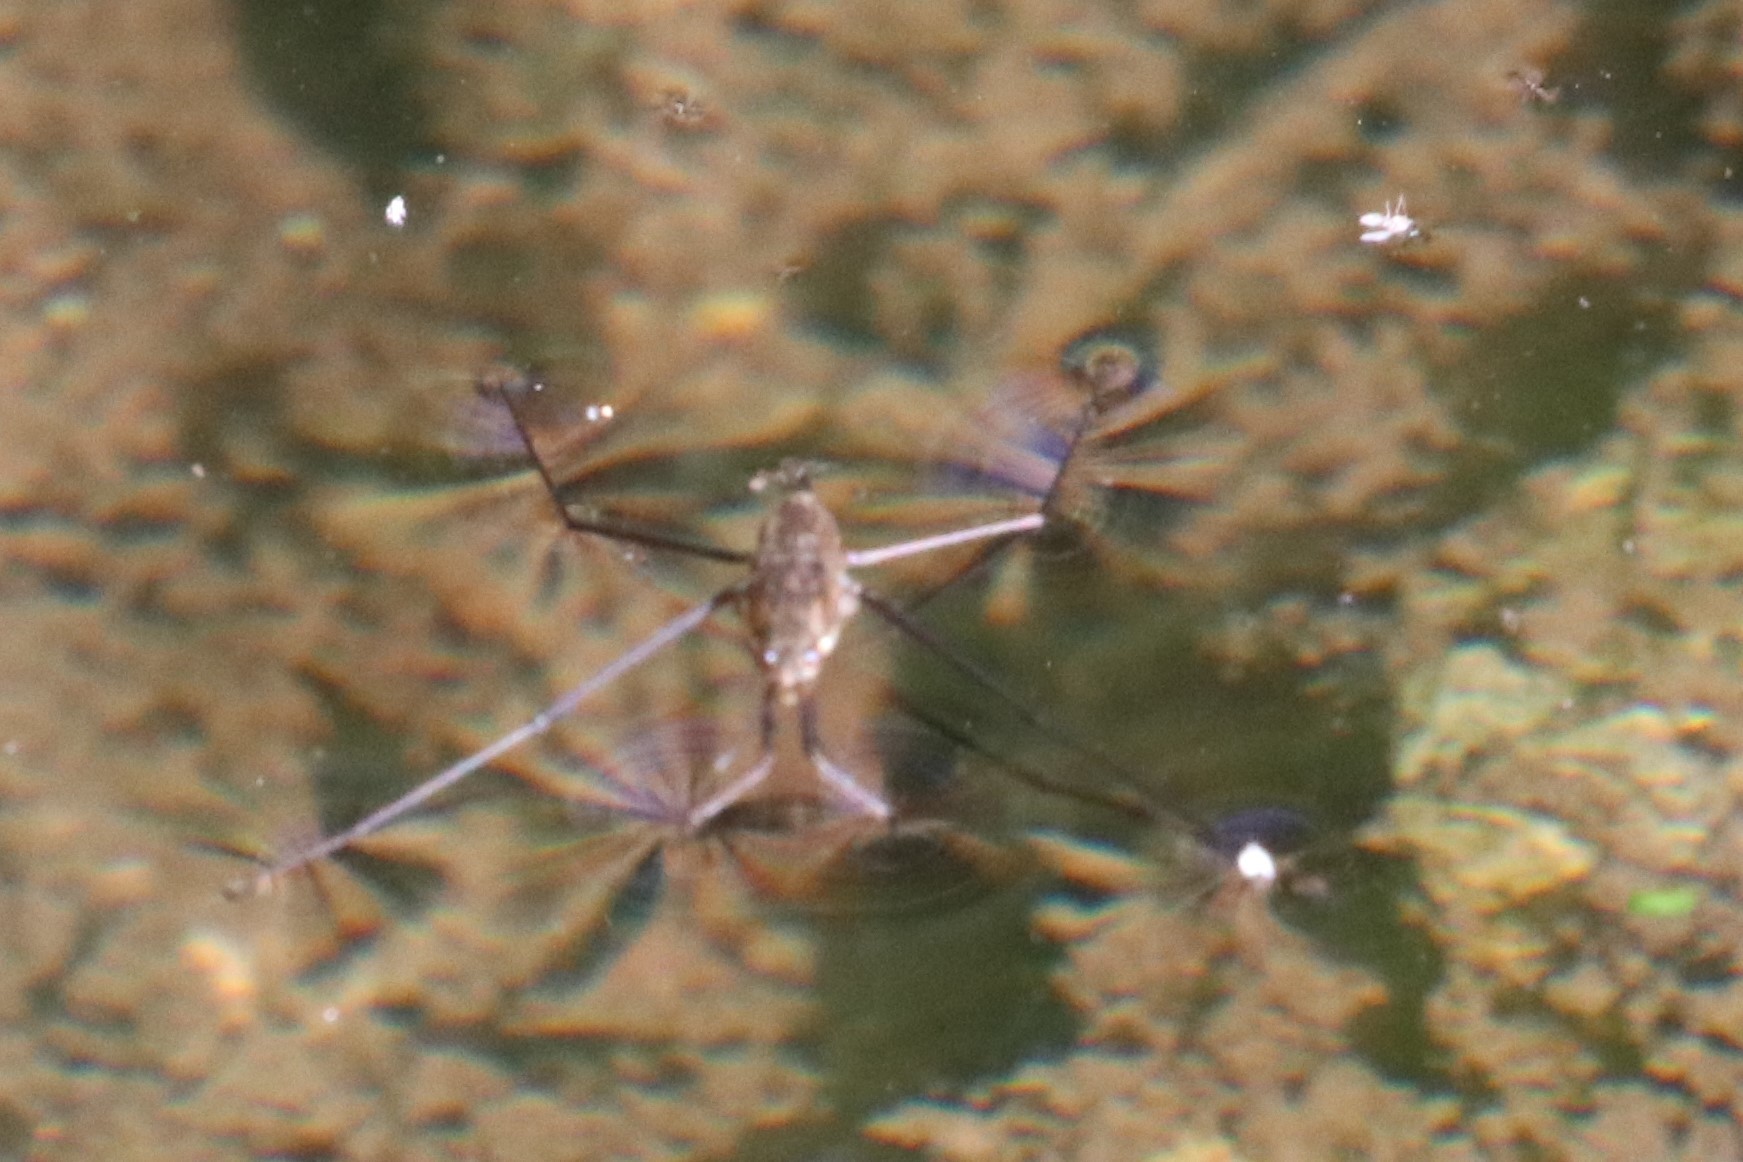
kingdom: Animalia
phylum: Arthropoda
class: Insecta
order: Hemiptera
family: Gerridae
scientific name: Gerridae
